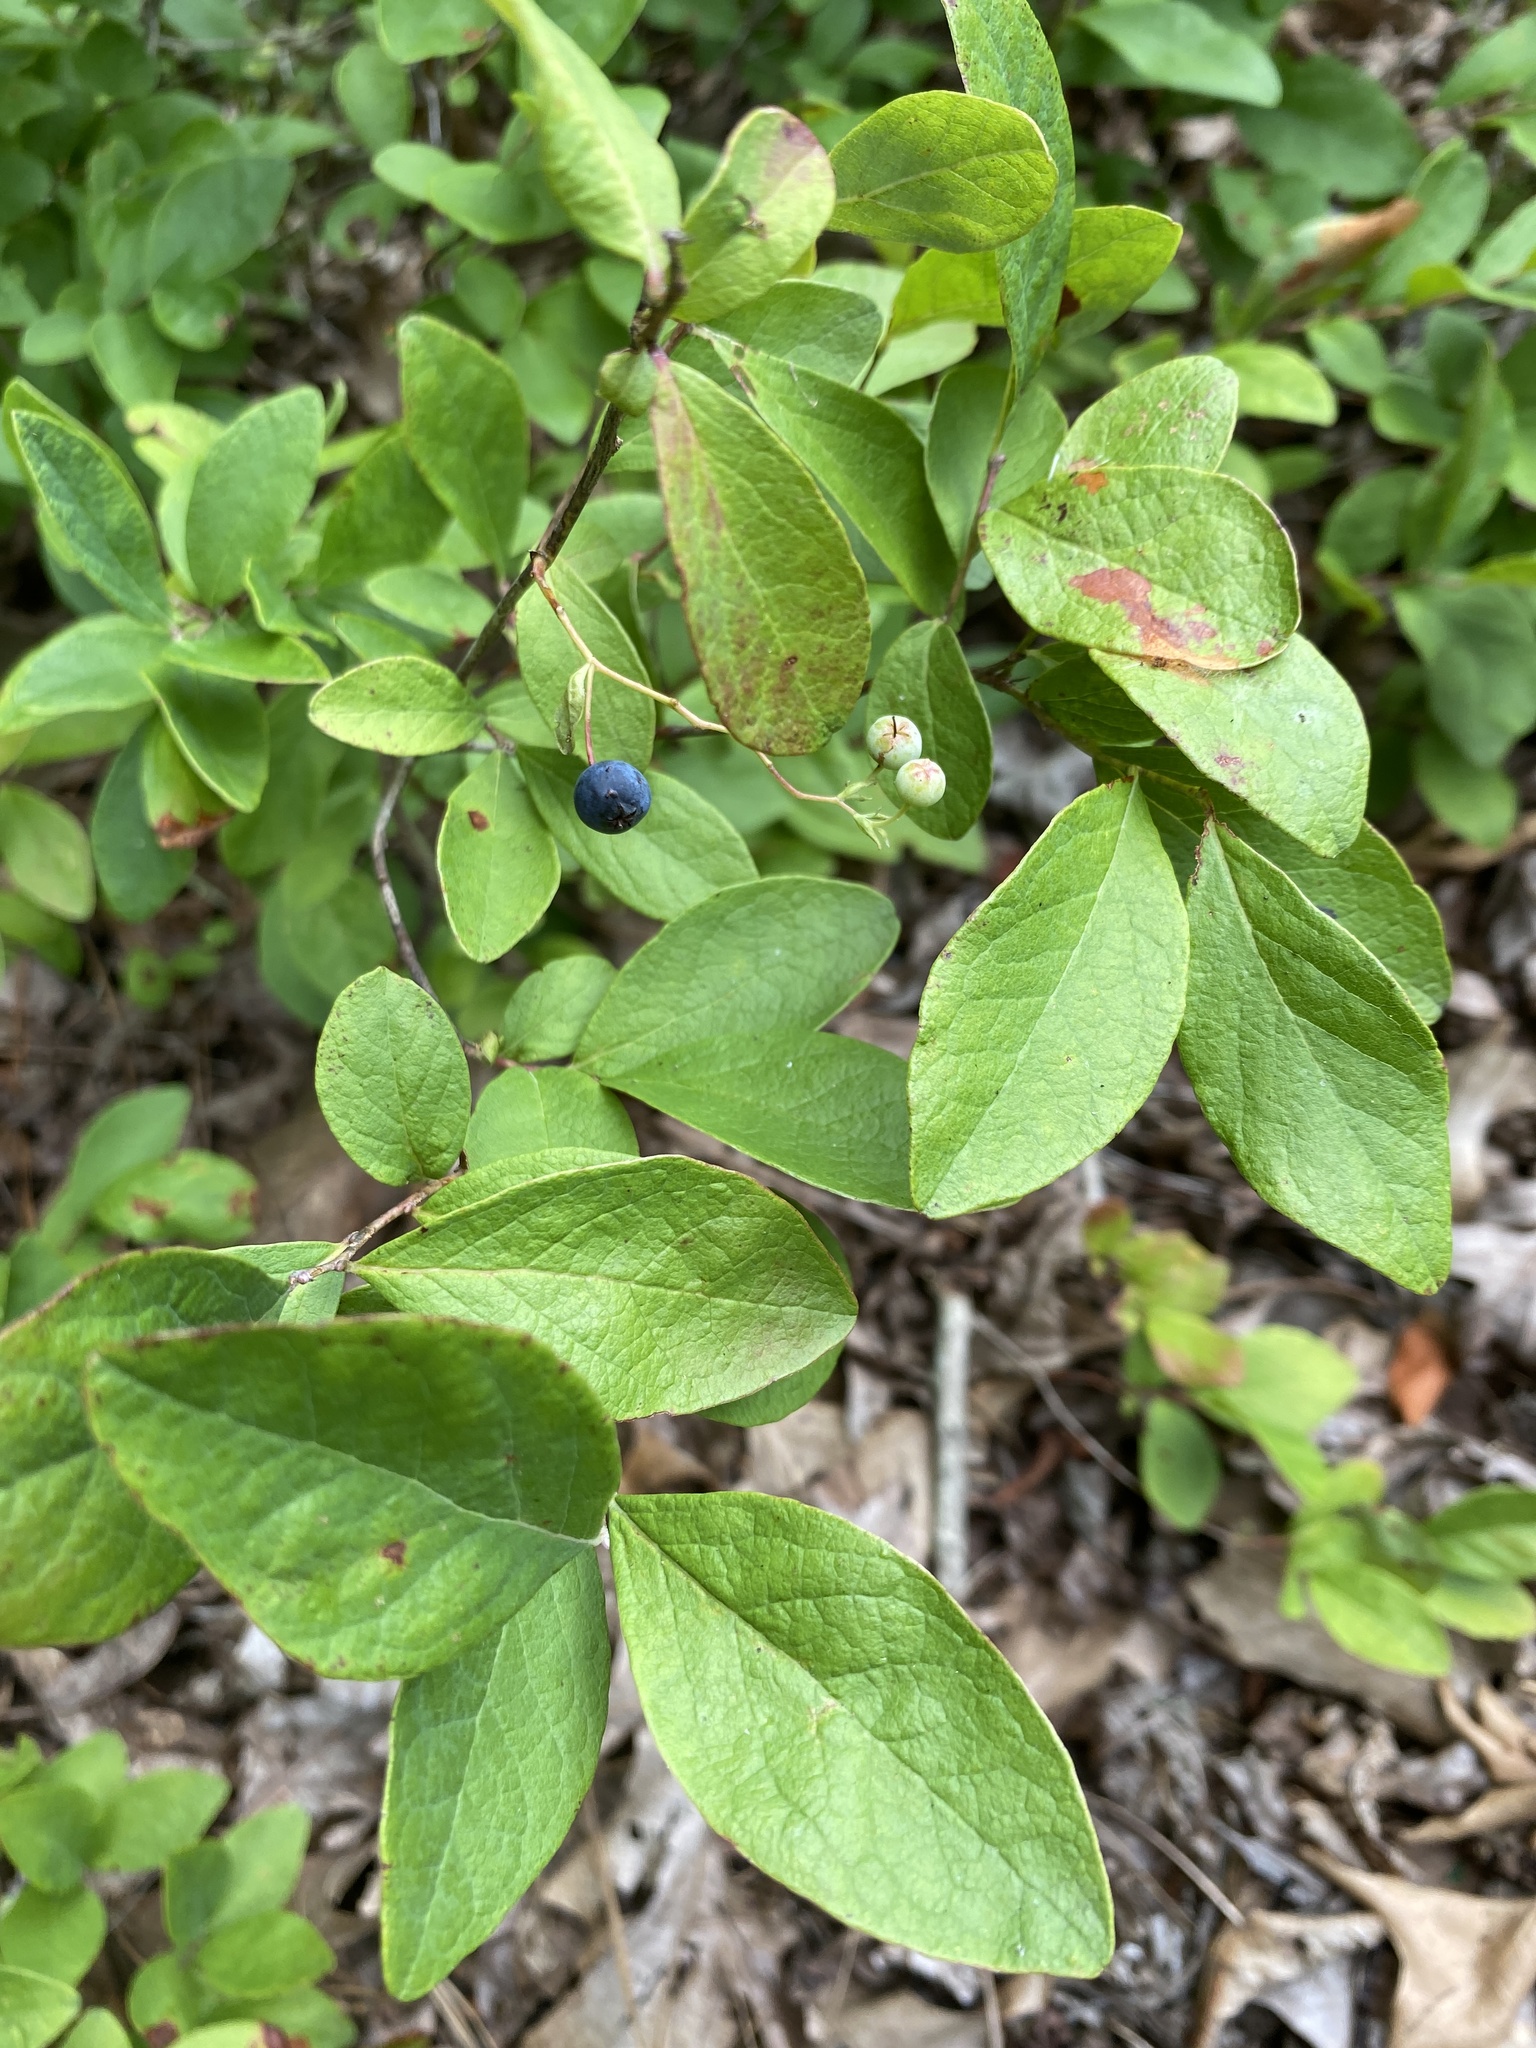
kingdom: Plantae
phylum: Tracheophyta
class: Magnoliopsida
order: Ericales
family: Ericaceae
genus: Gaylussacia
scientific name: Gaylussacia frondosa
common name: Dangleberry
